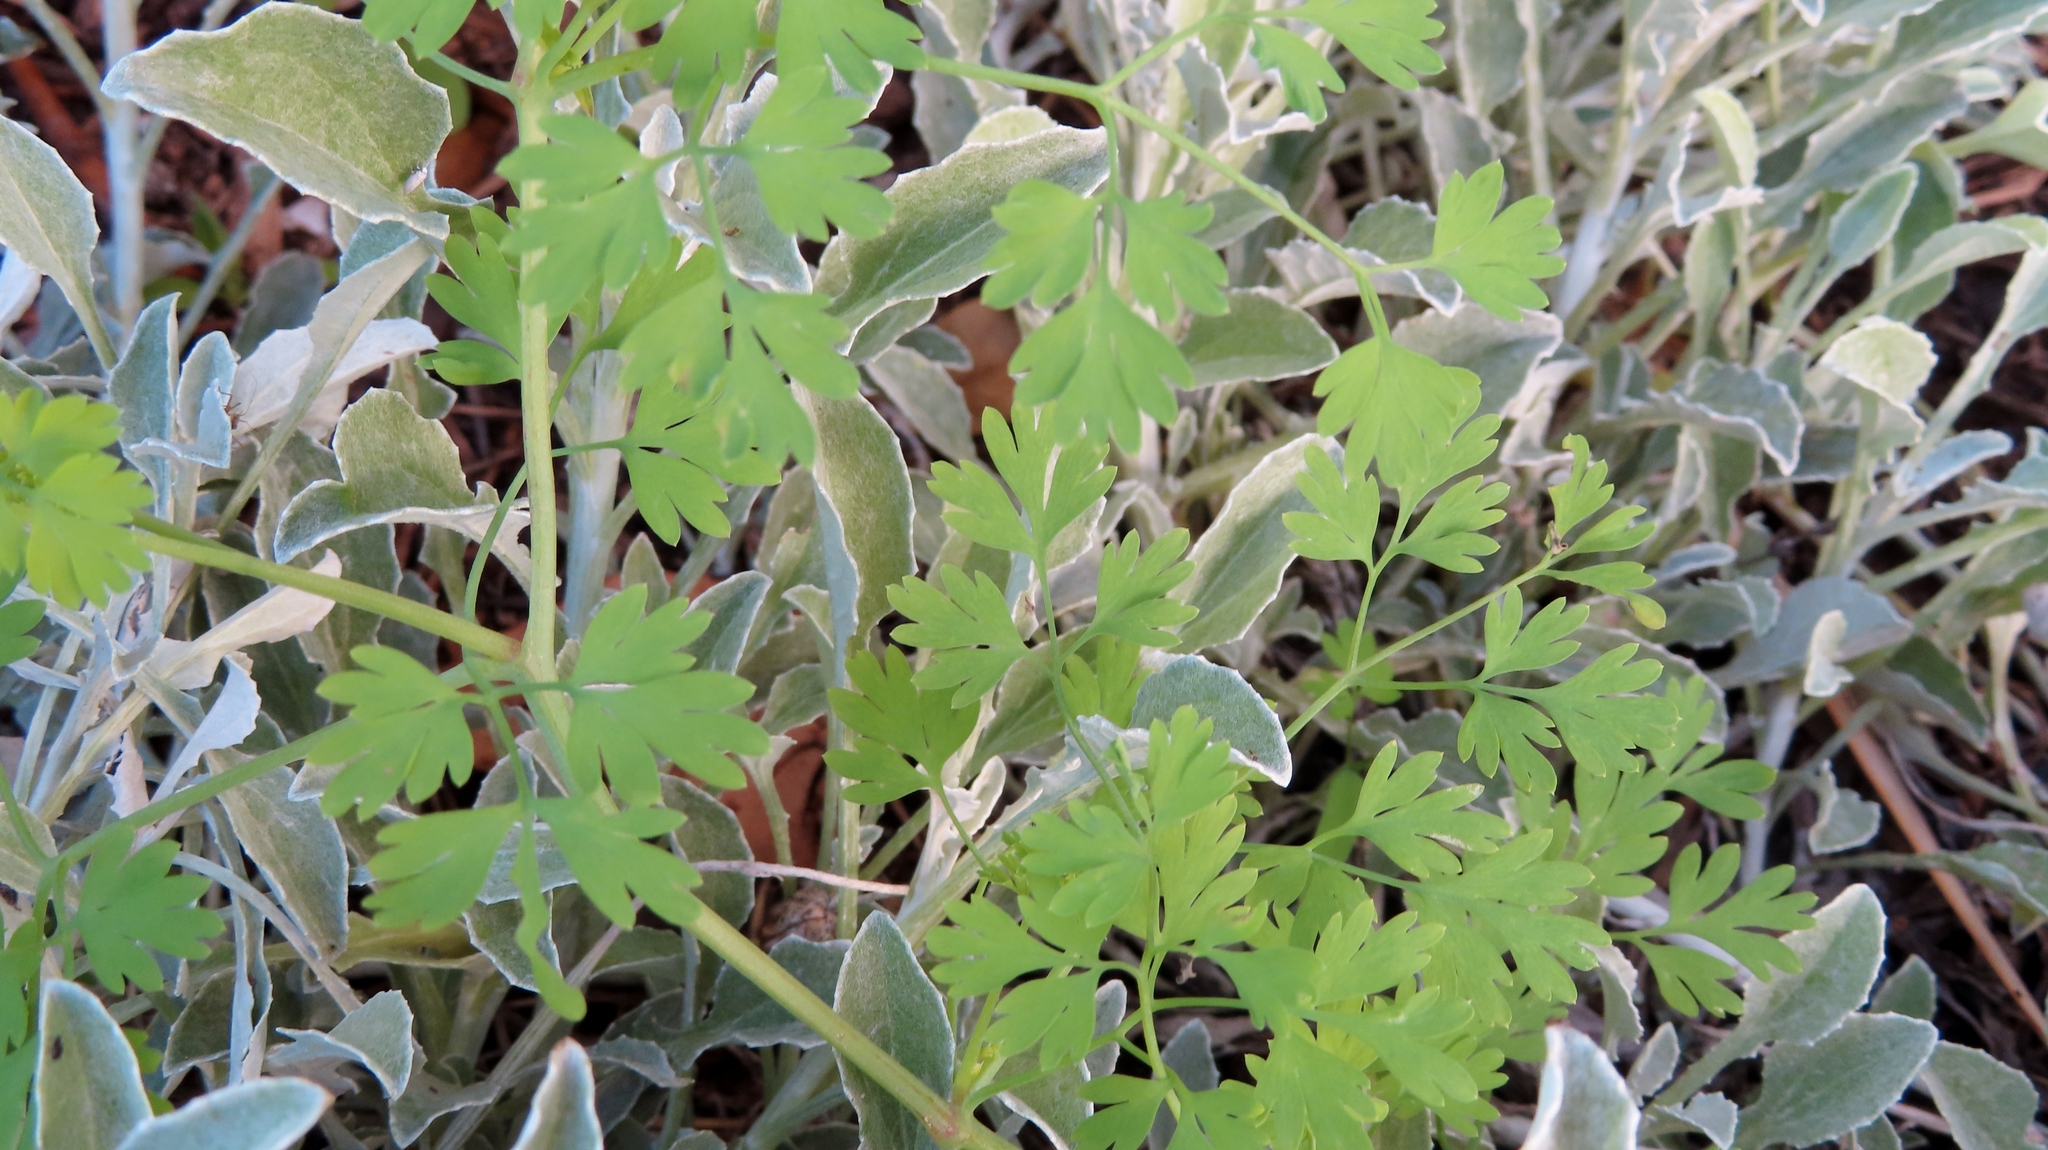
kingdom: Plantae
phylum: Tracheophyta
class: Magnoliopsida
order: Ranunculales
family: Papaveraceae
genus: Fumaria
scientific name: Fumaria muralis
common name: Common ramping-fumitory
